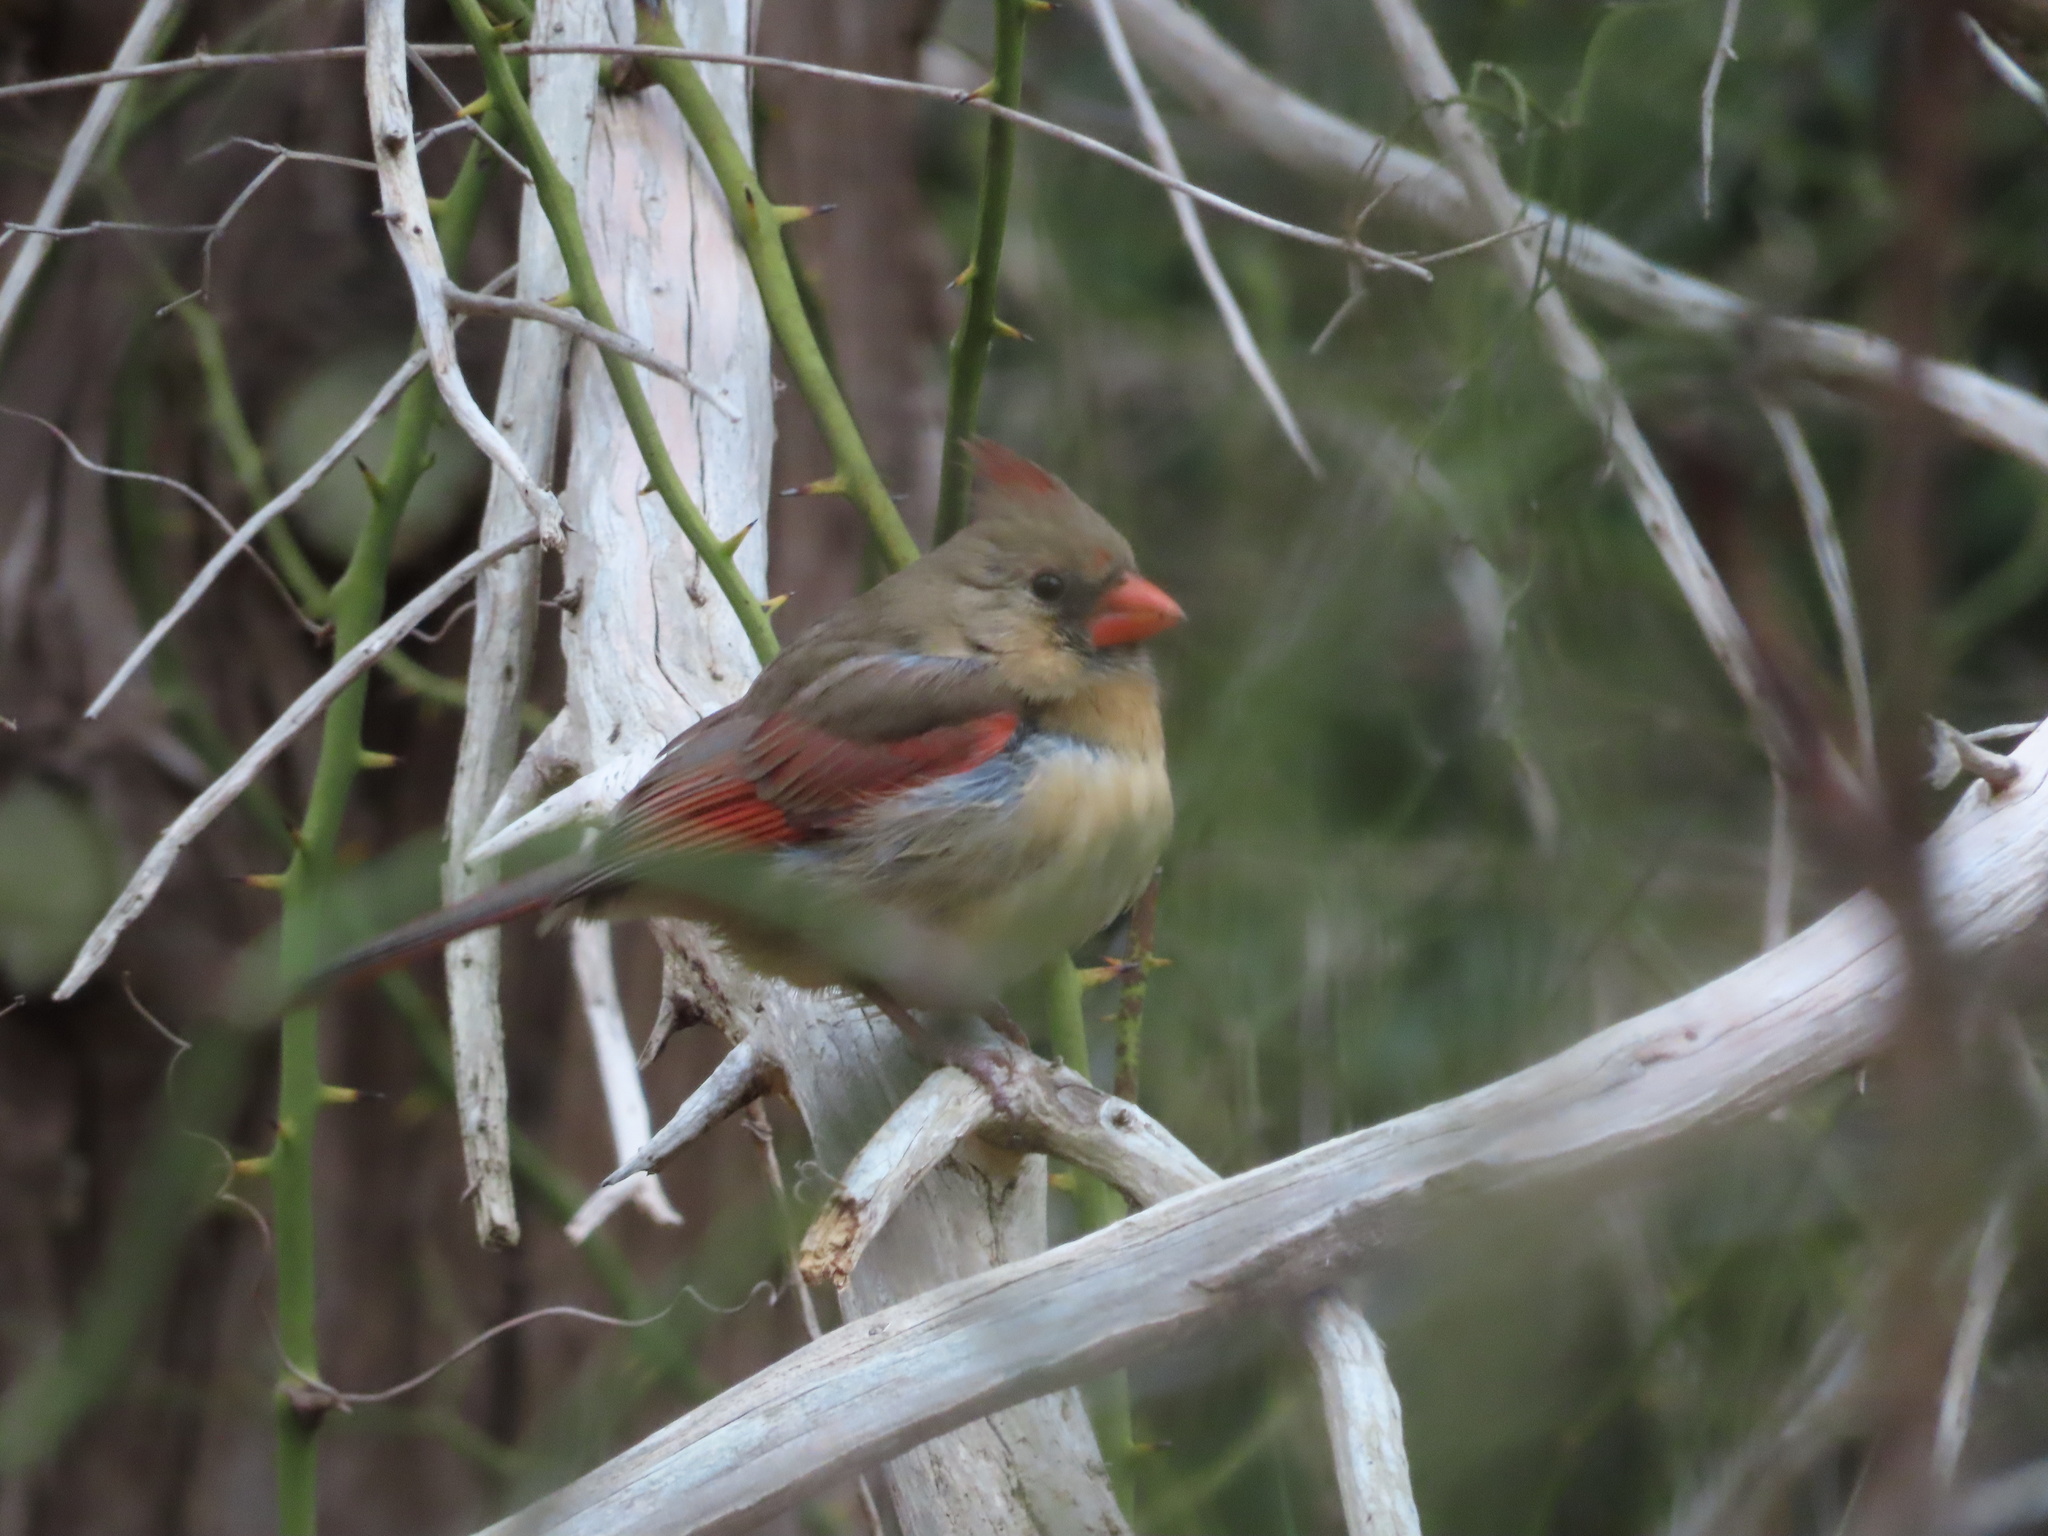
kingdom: Animalia
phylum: Chordata
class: Aves
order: Passeriformes
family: Cardinalidae
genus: Cardinalis
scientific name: Cardinalis cardinalis
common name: Northern cardinal
